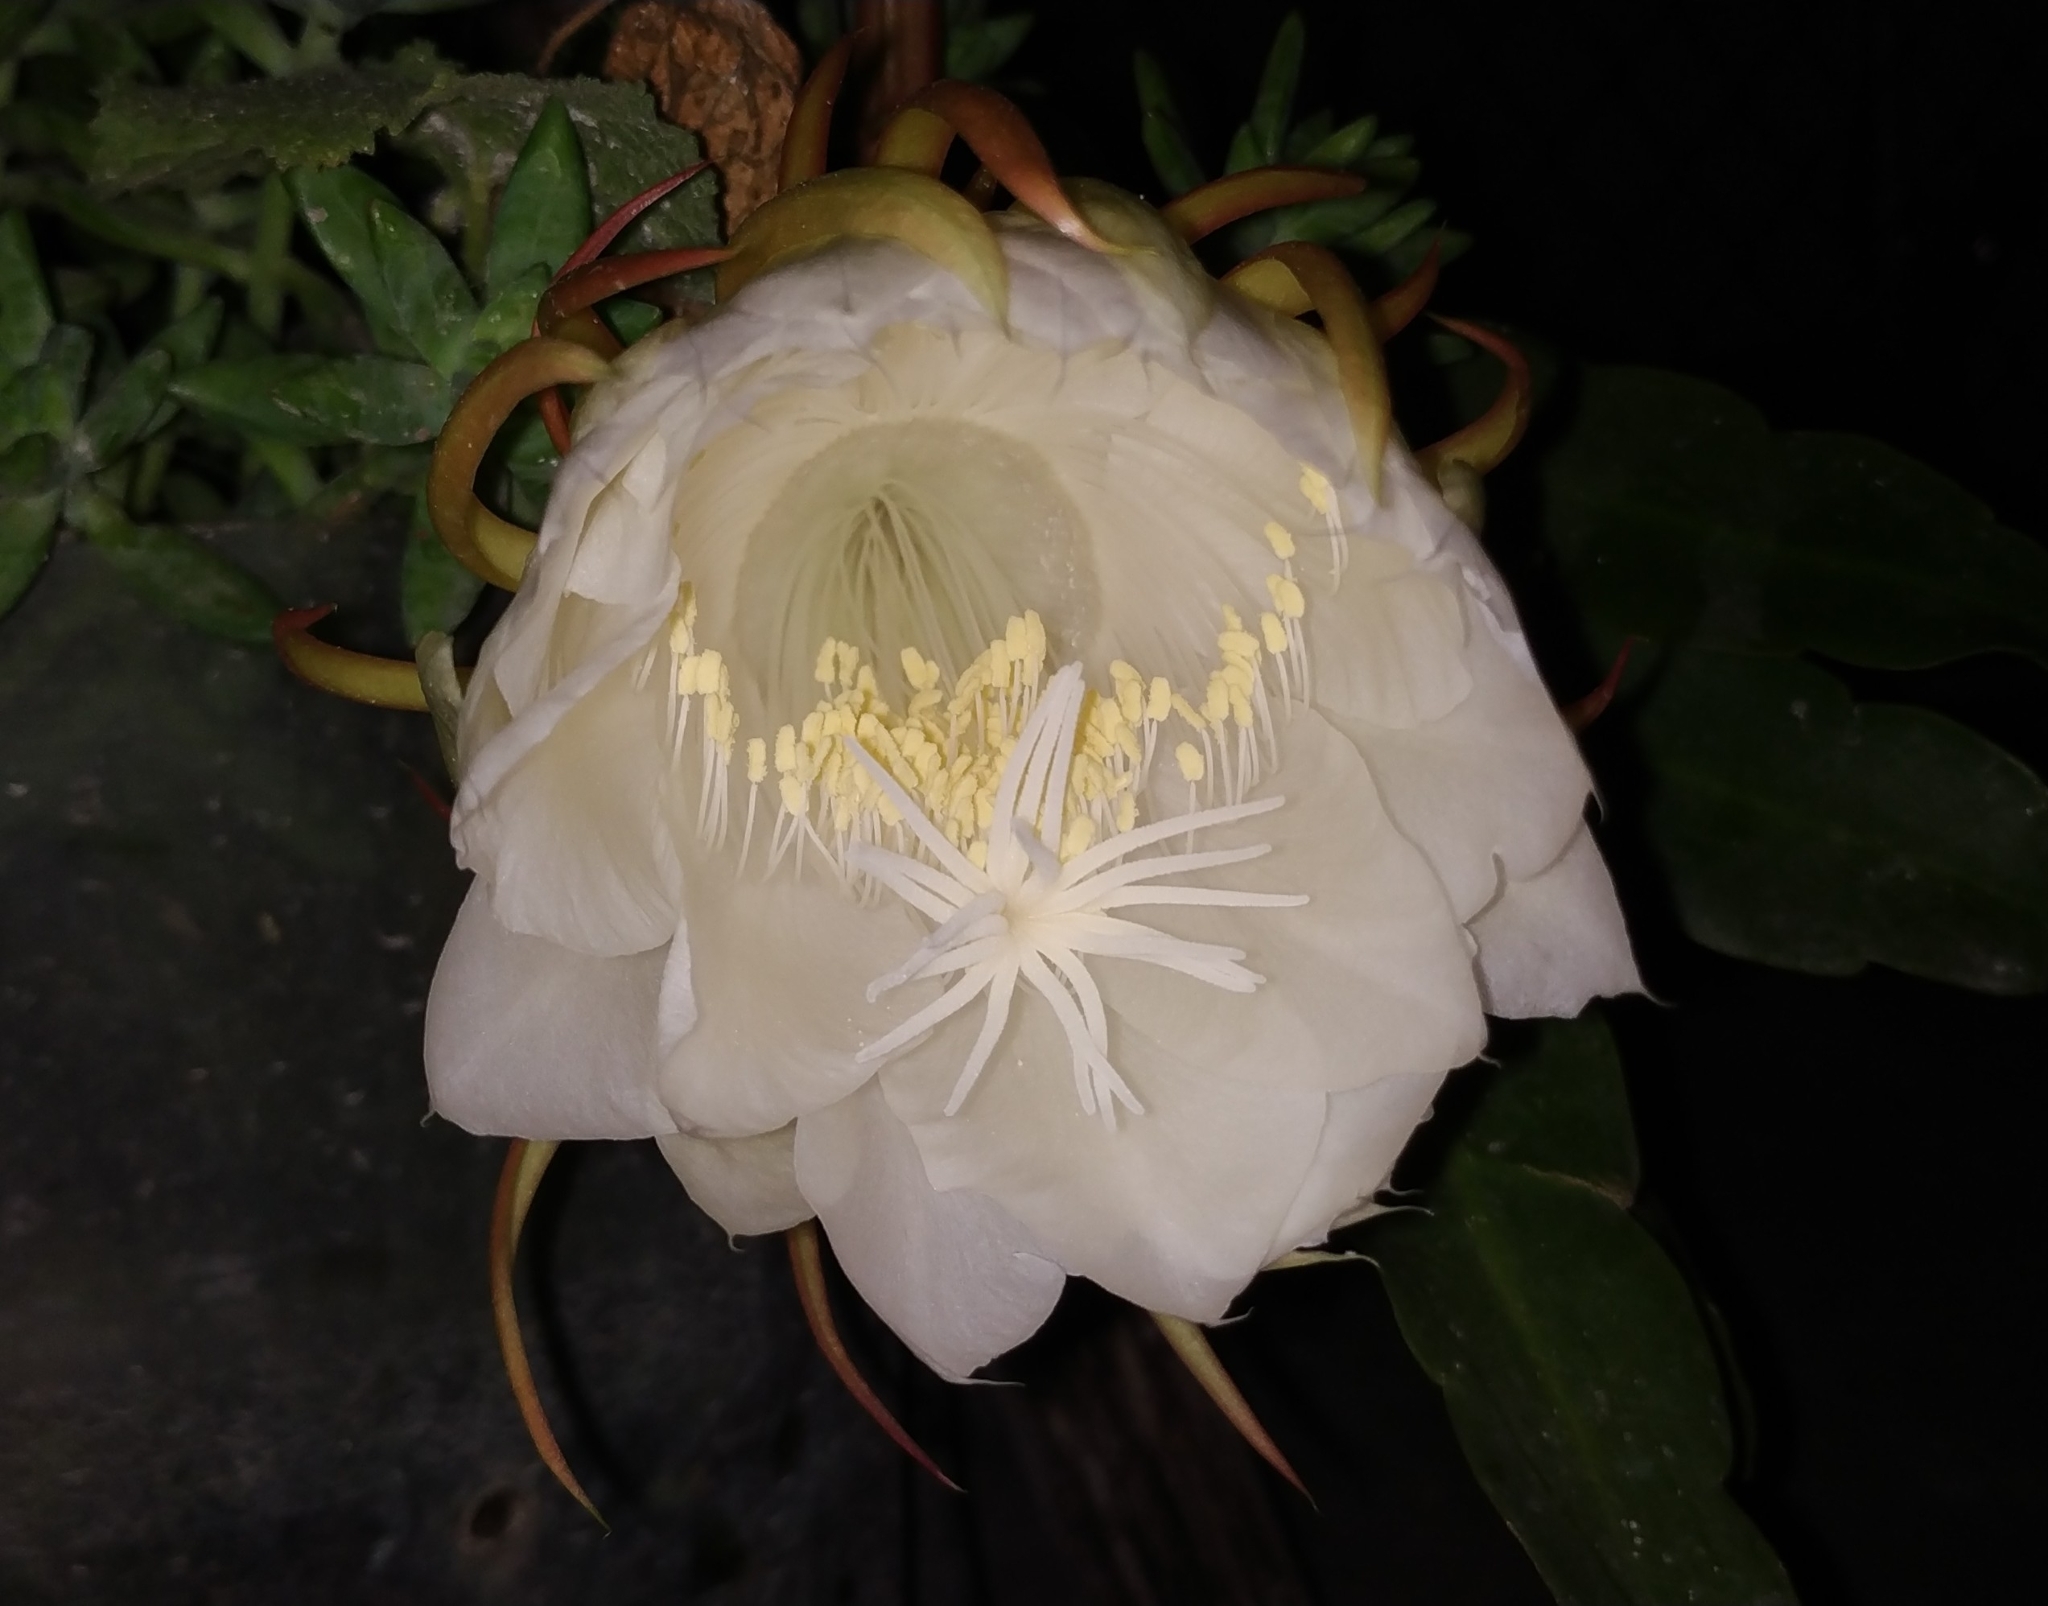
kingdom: Plantae
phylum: Tracheophyta
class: Magnoliopsida
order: Caryophyllales
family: Cactaceae
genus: Epiphyllum
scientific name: Epiphyllum oxypetalum
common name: Dutchman's pipe cactus
